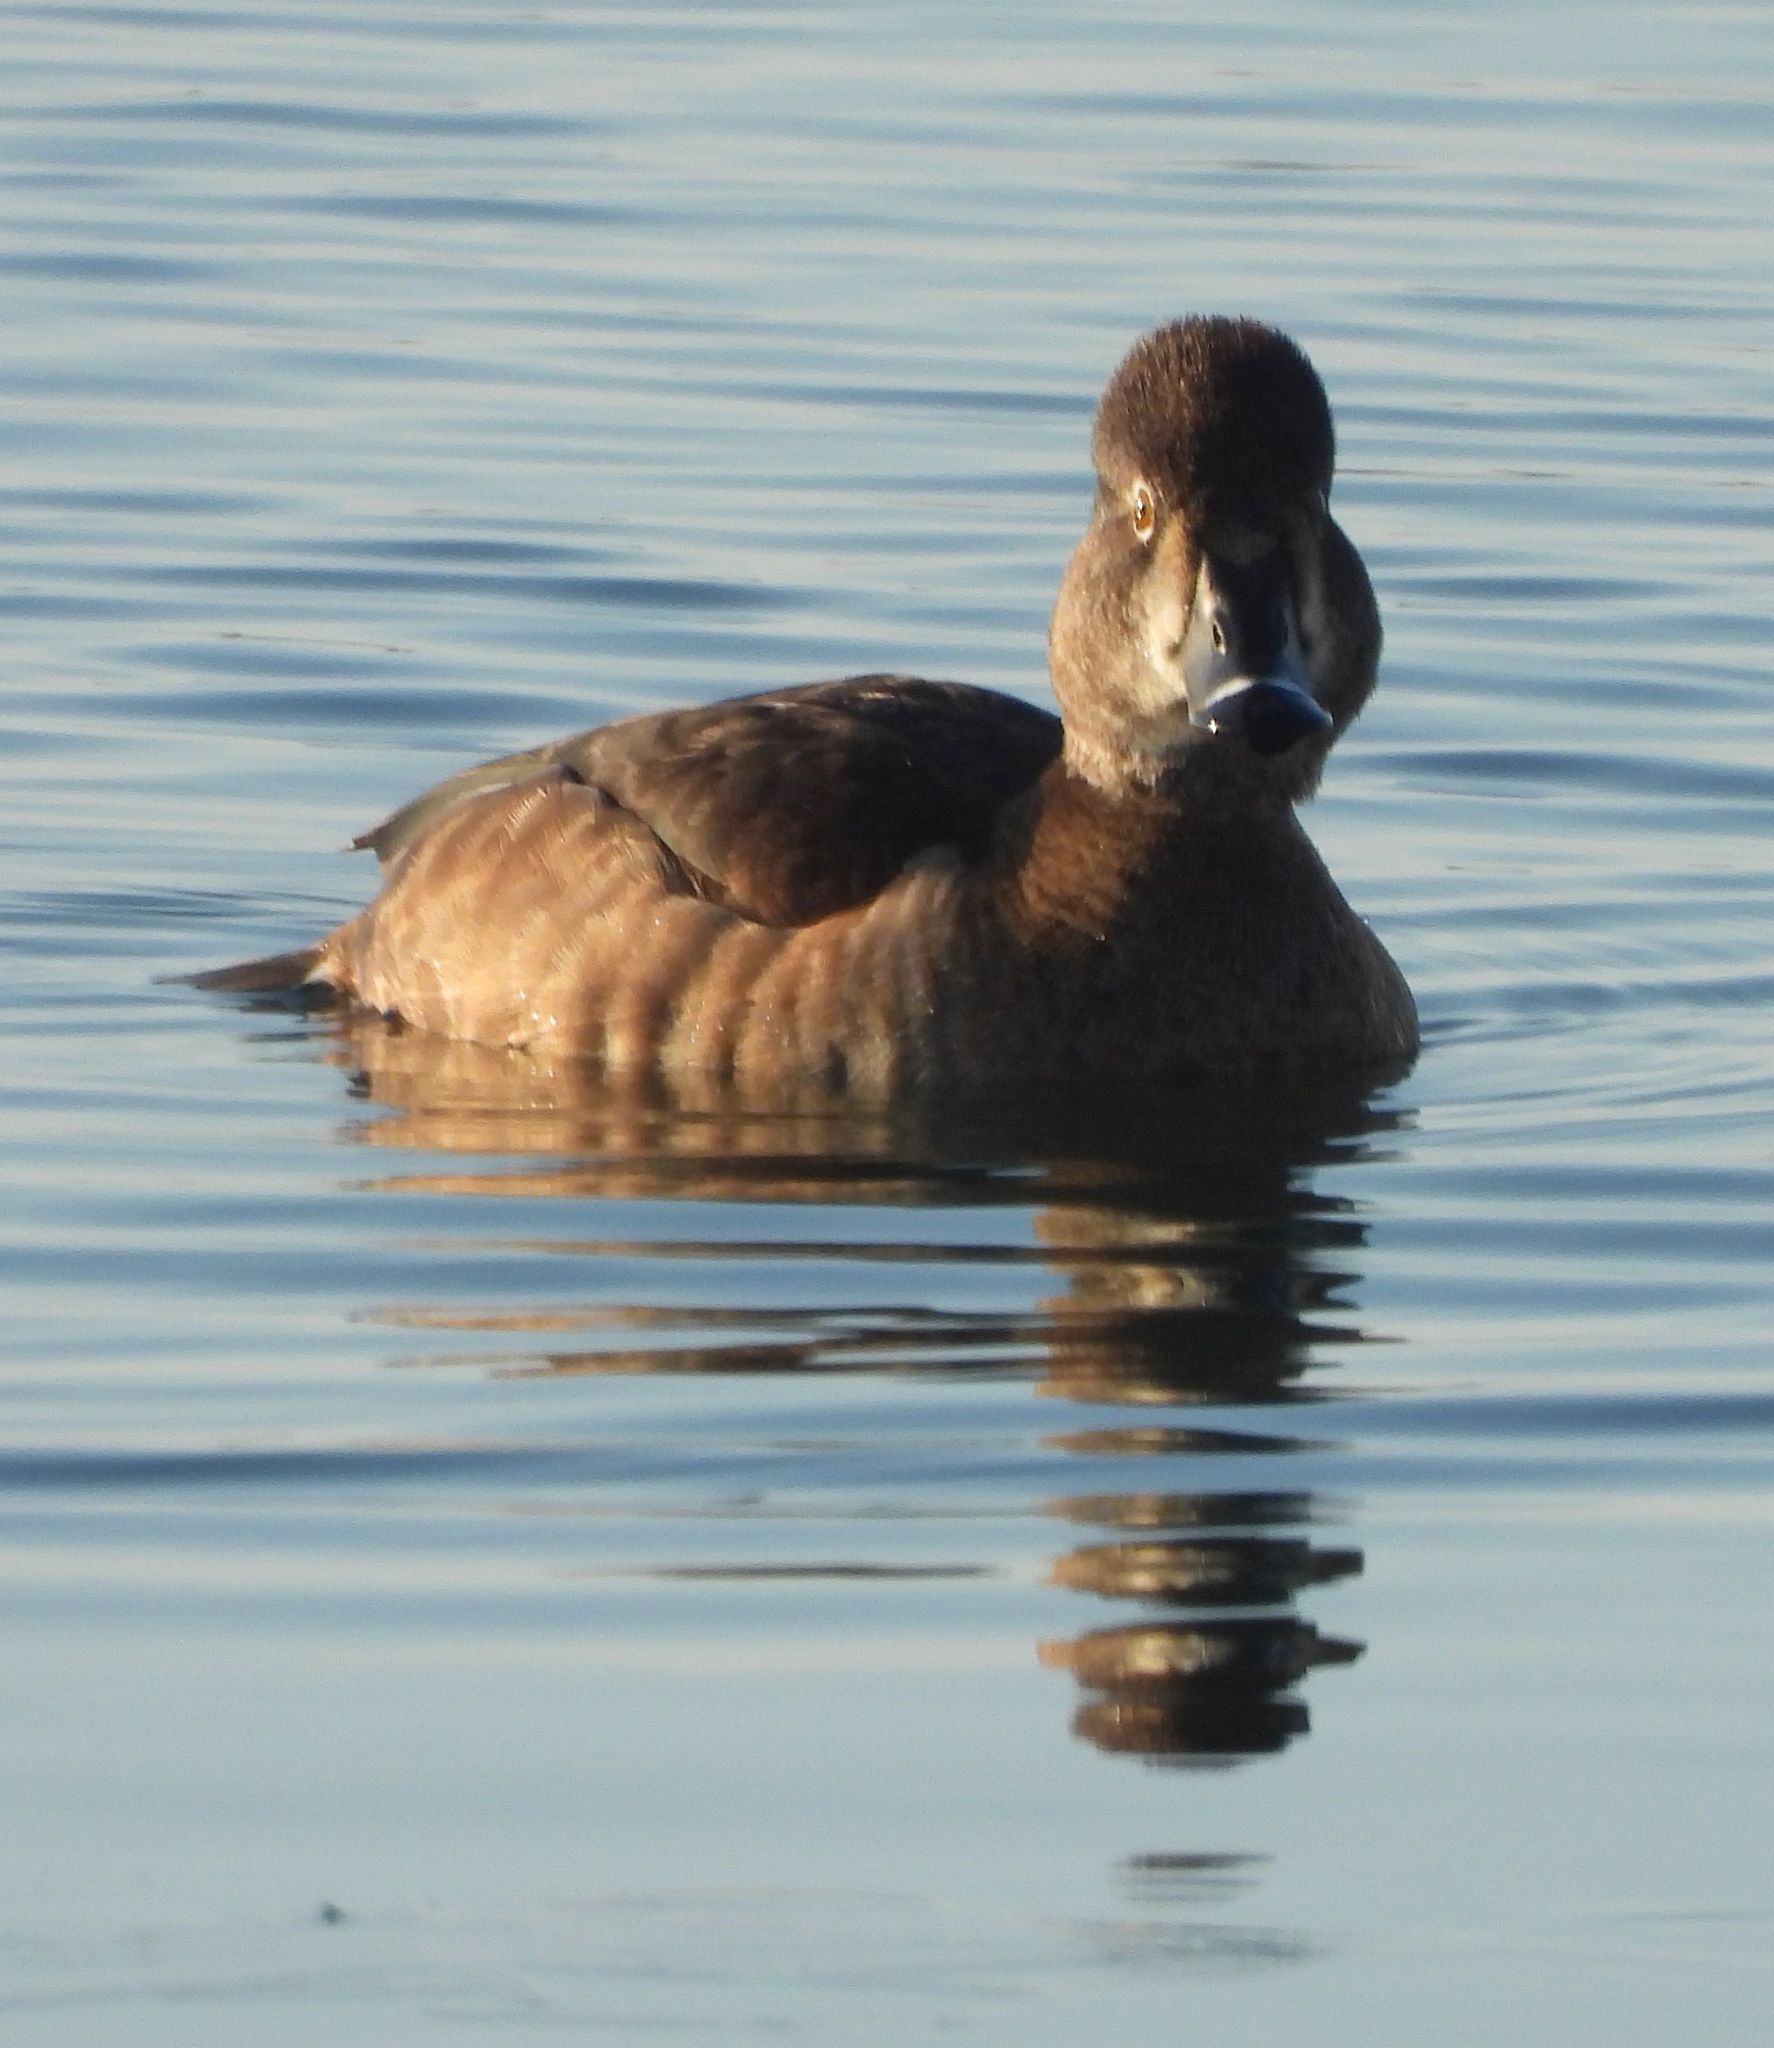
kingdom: Animalia
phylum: Chordata
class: Aves
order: Anseriformes
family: Anatidae
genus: Aythya
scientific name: Aythya collaris
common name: Ring-necked duck
